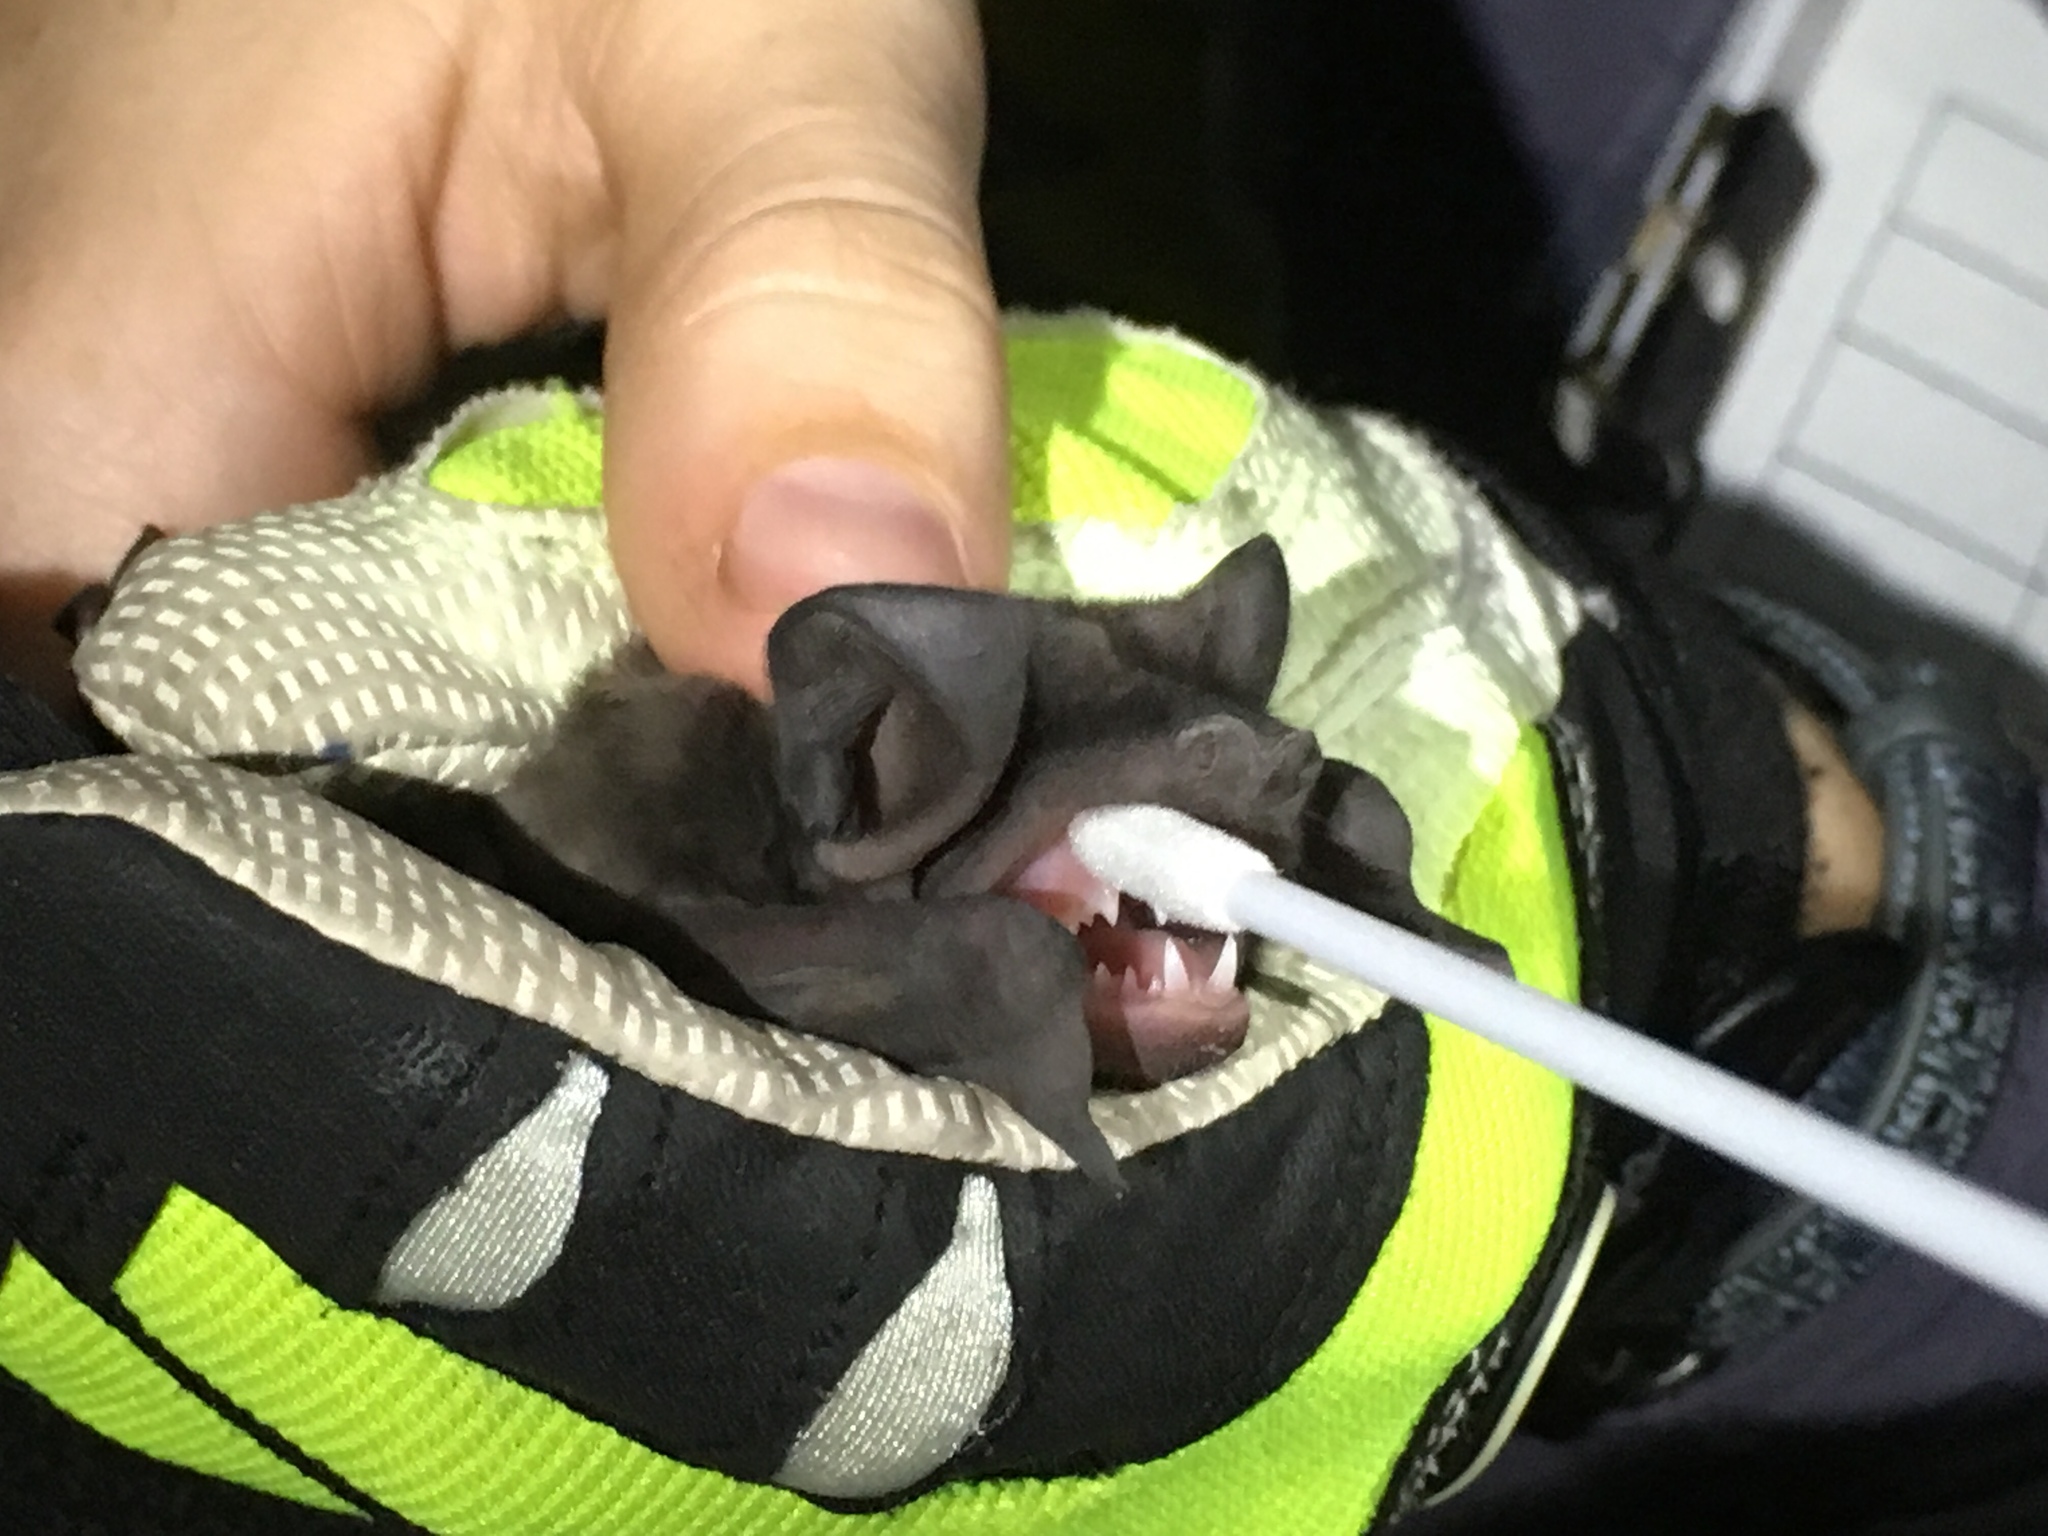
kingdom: Animalia
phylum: Chordata
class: Mammalia
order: Chiroptera
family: Molossidae
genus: Eumops
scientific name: Eumops floridanus
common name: Florida bonneted bat
